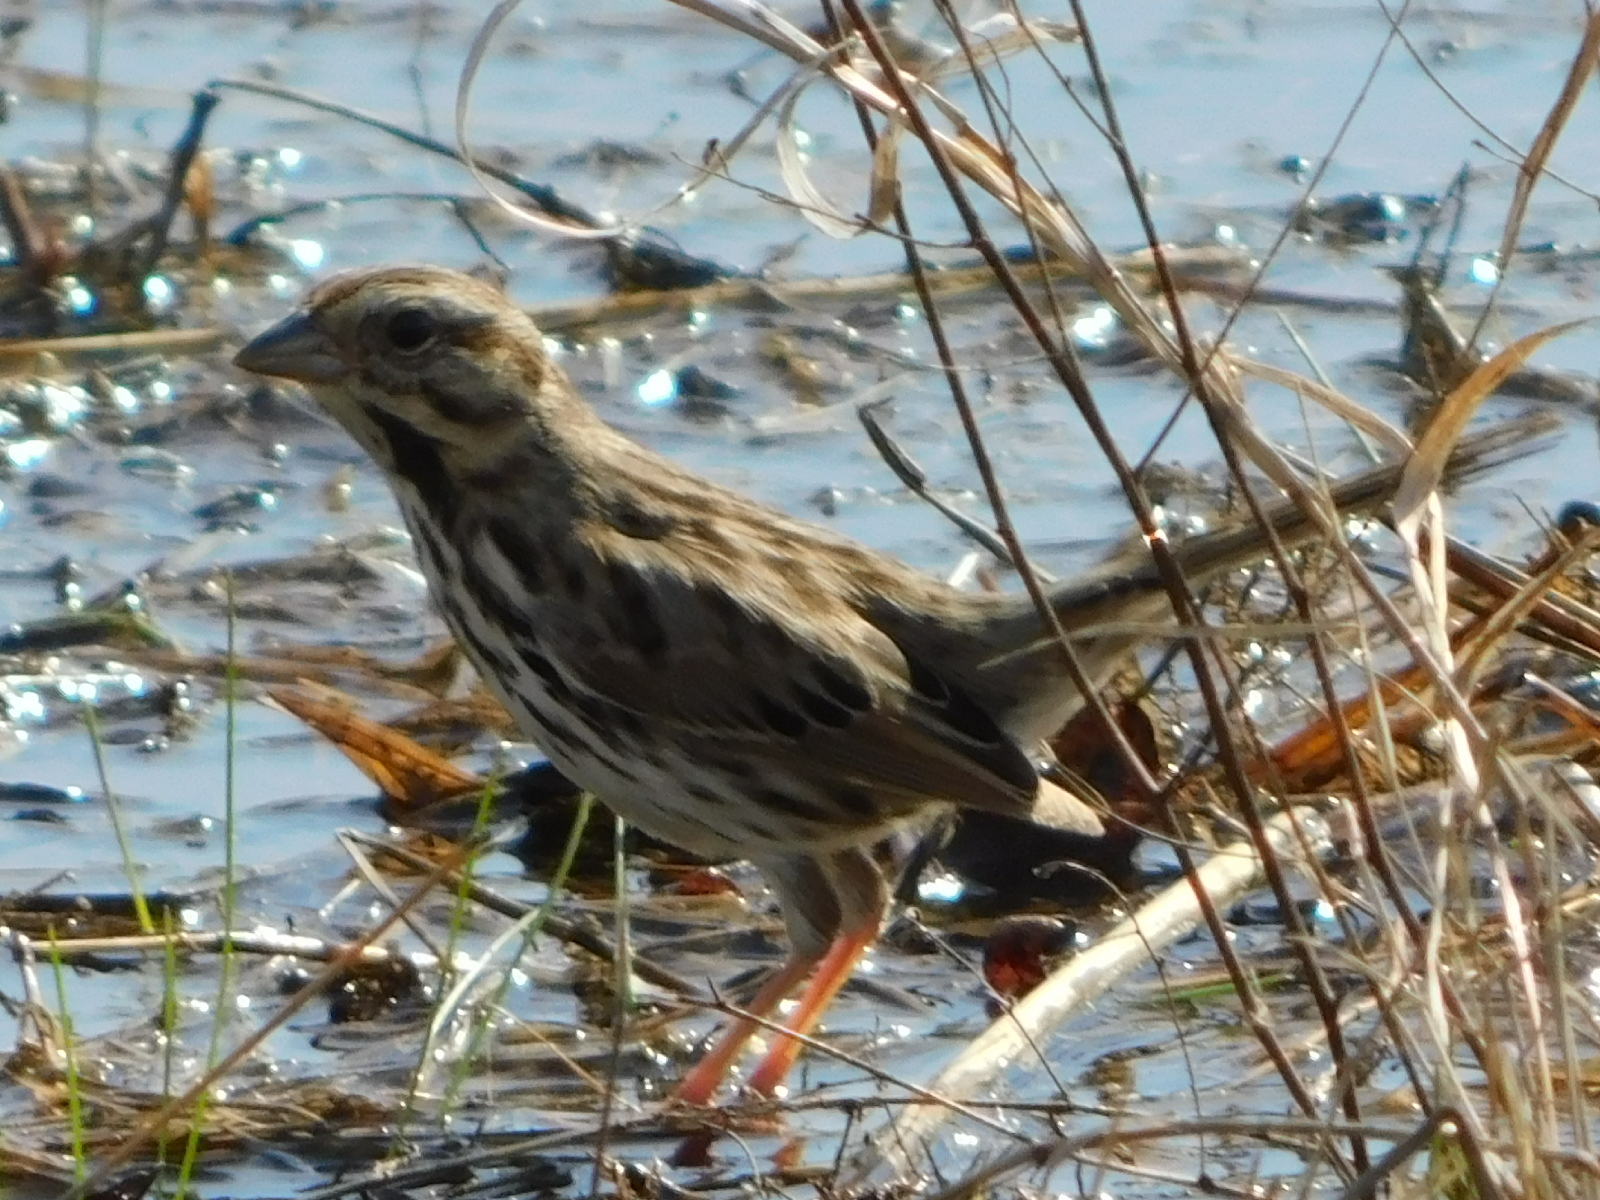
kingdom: Animalia
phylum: Chordata
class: Aves
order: Passeriformes
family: Passerellidae
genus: Melospiza
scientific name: Melospiza melodia
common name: Song sparrow
